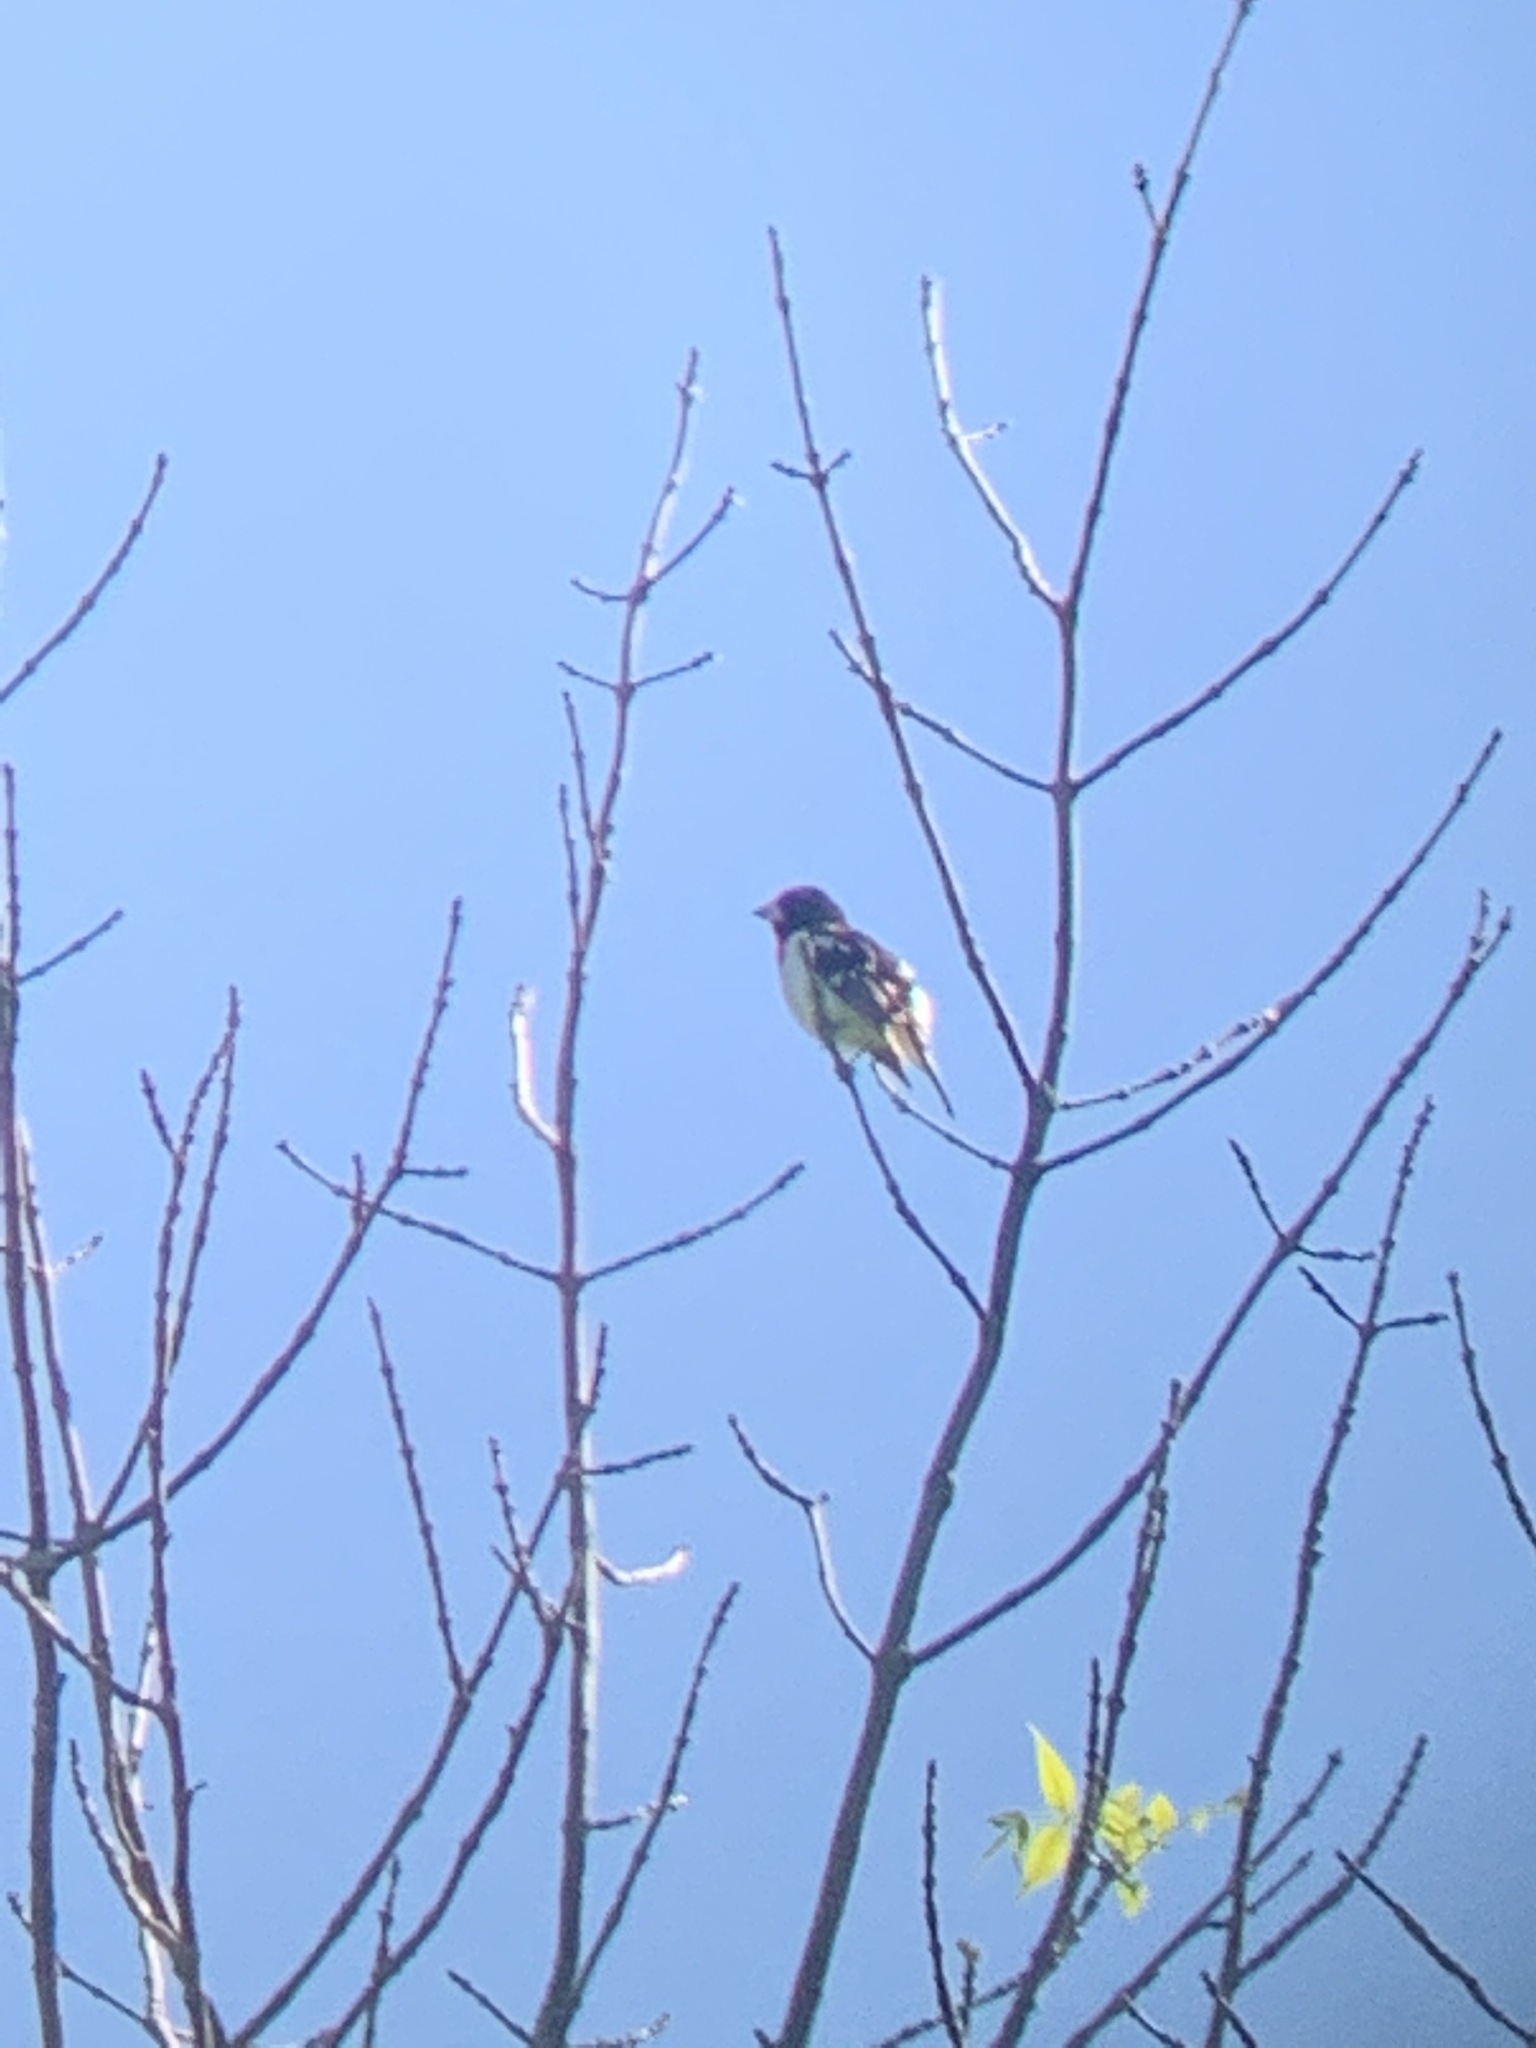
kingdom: Animalia
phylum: Chordata
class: Aves
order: Passeriformes
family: Cardinalidae
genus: Pheucticus
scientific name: Pheucticus ludovicianus
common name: Rose-breasted grosbeak
